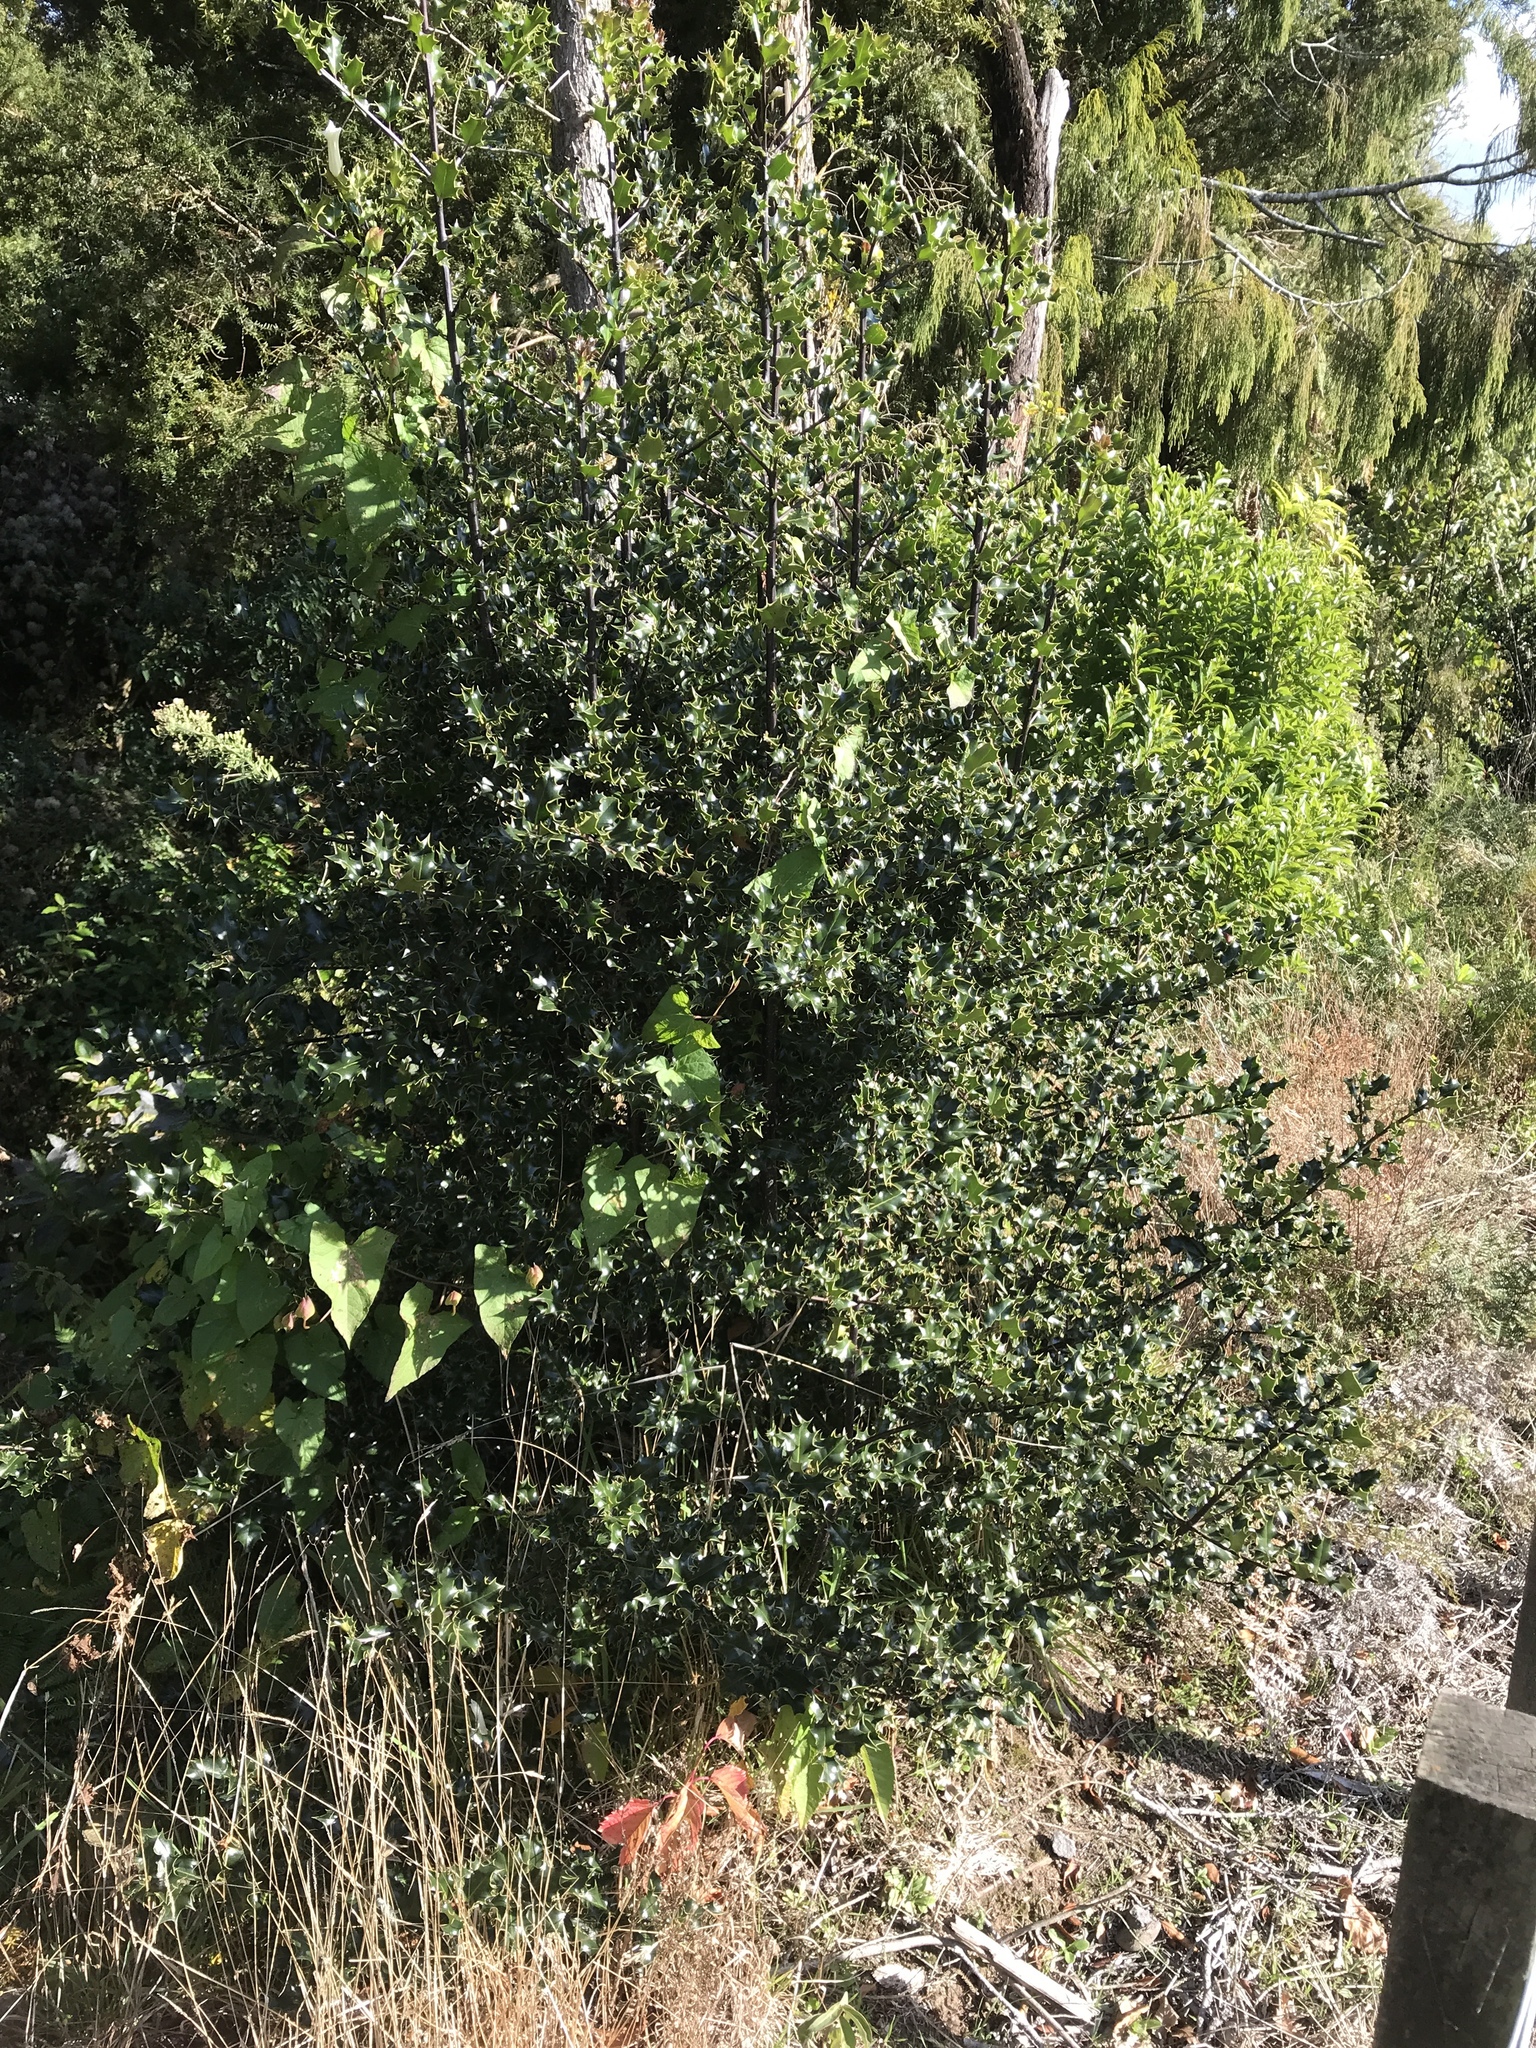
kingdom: Plantae
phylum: Tracheophyta
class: Magnoliopsida
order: Aquifoliales
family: Aquifoliaceae
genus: Ilex
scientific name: Ilex aquifolium
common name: English holly
